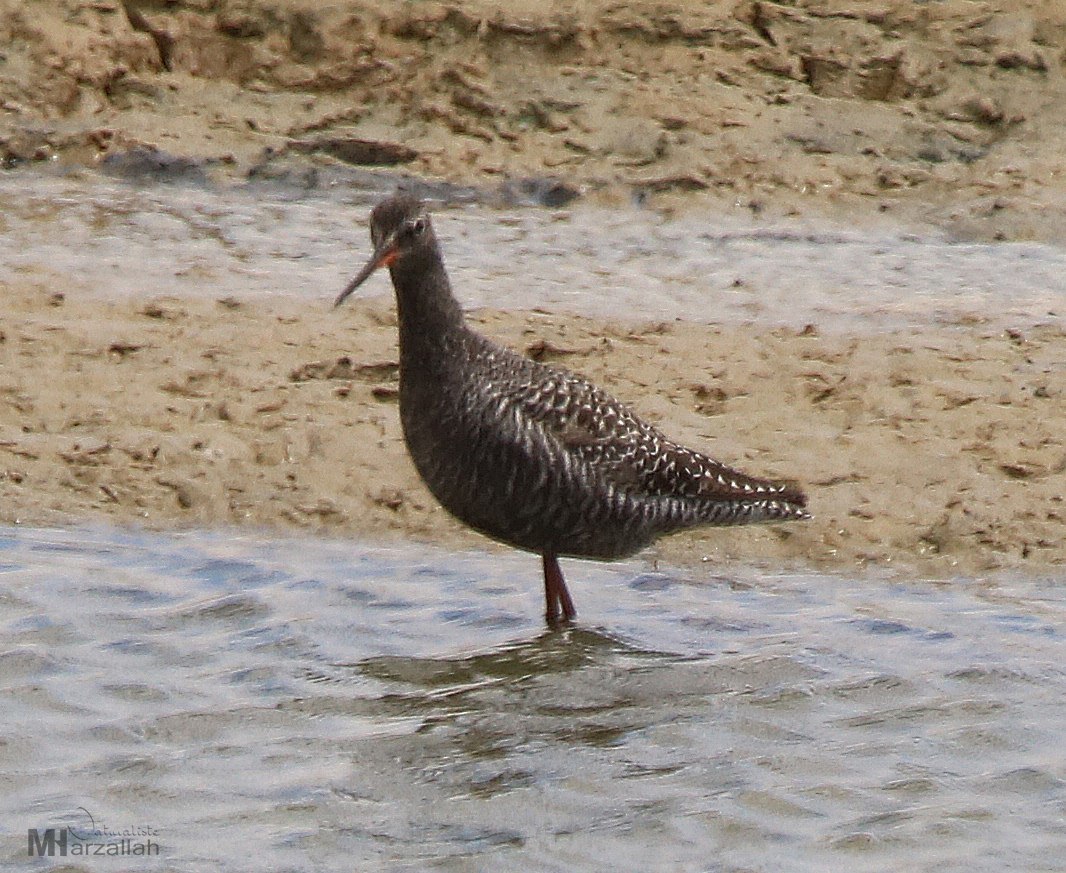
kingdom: Animalia
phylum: Chordata
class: Aves
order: Charadriiformes
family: Scolopacidae
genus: Tringa
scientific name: Tringa erythropus
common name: Spotted redshank
